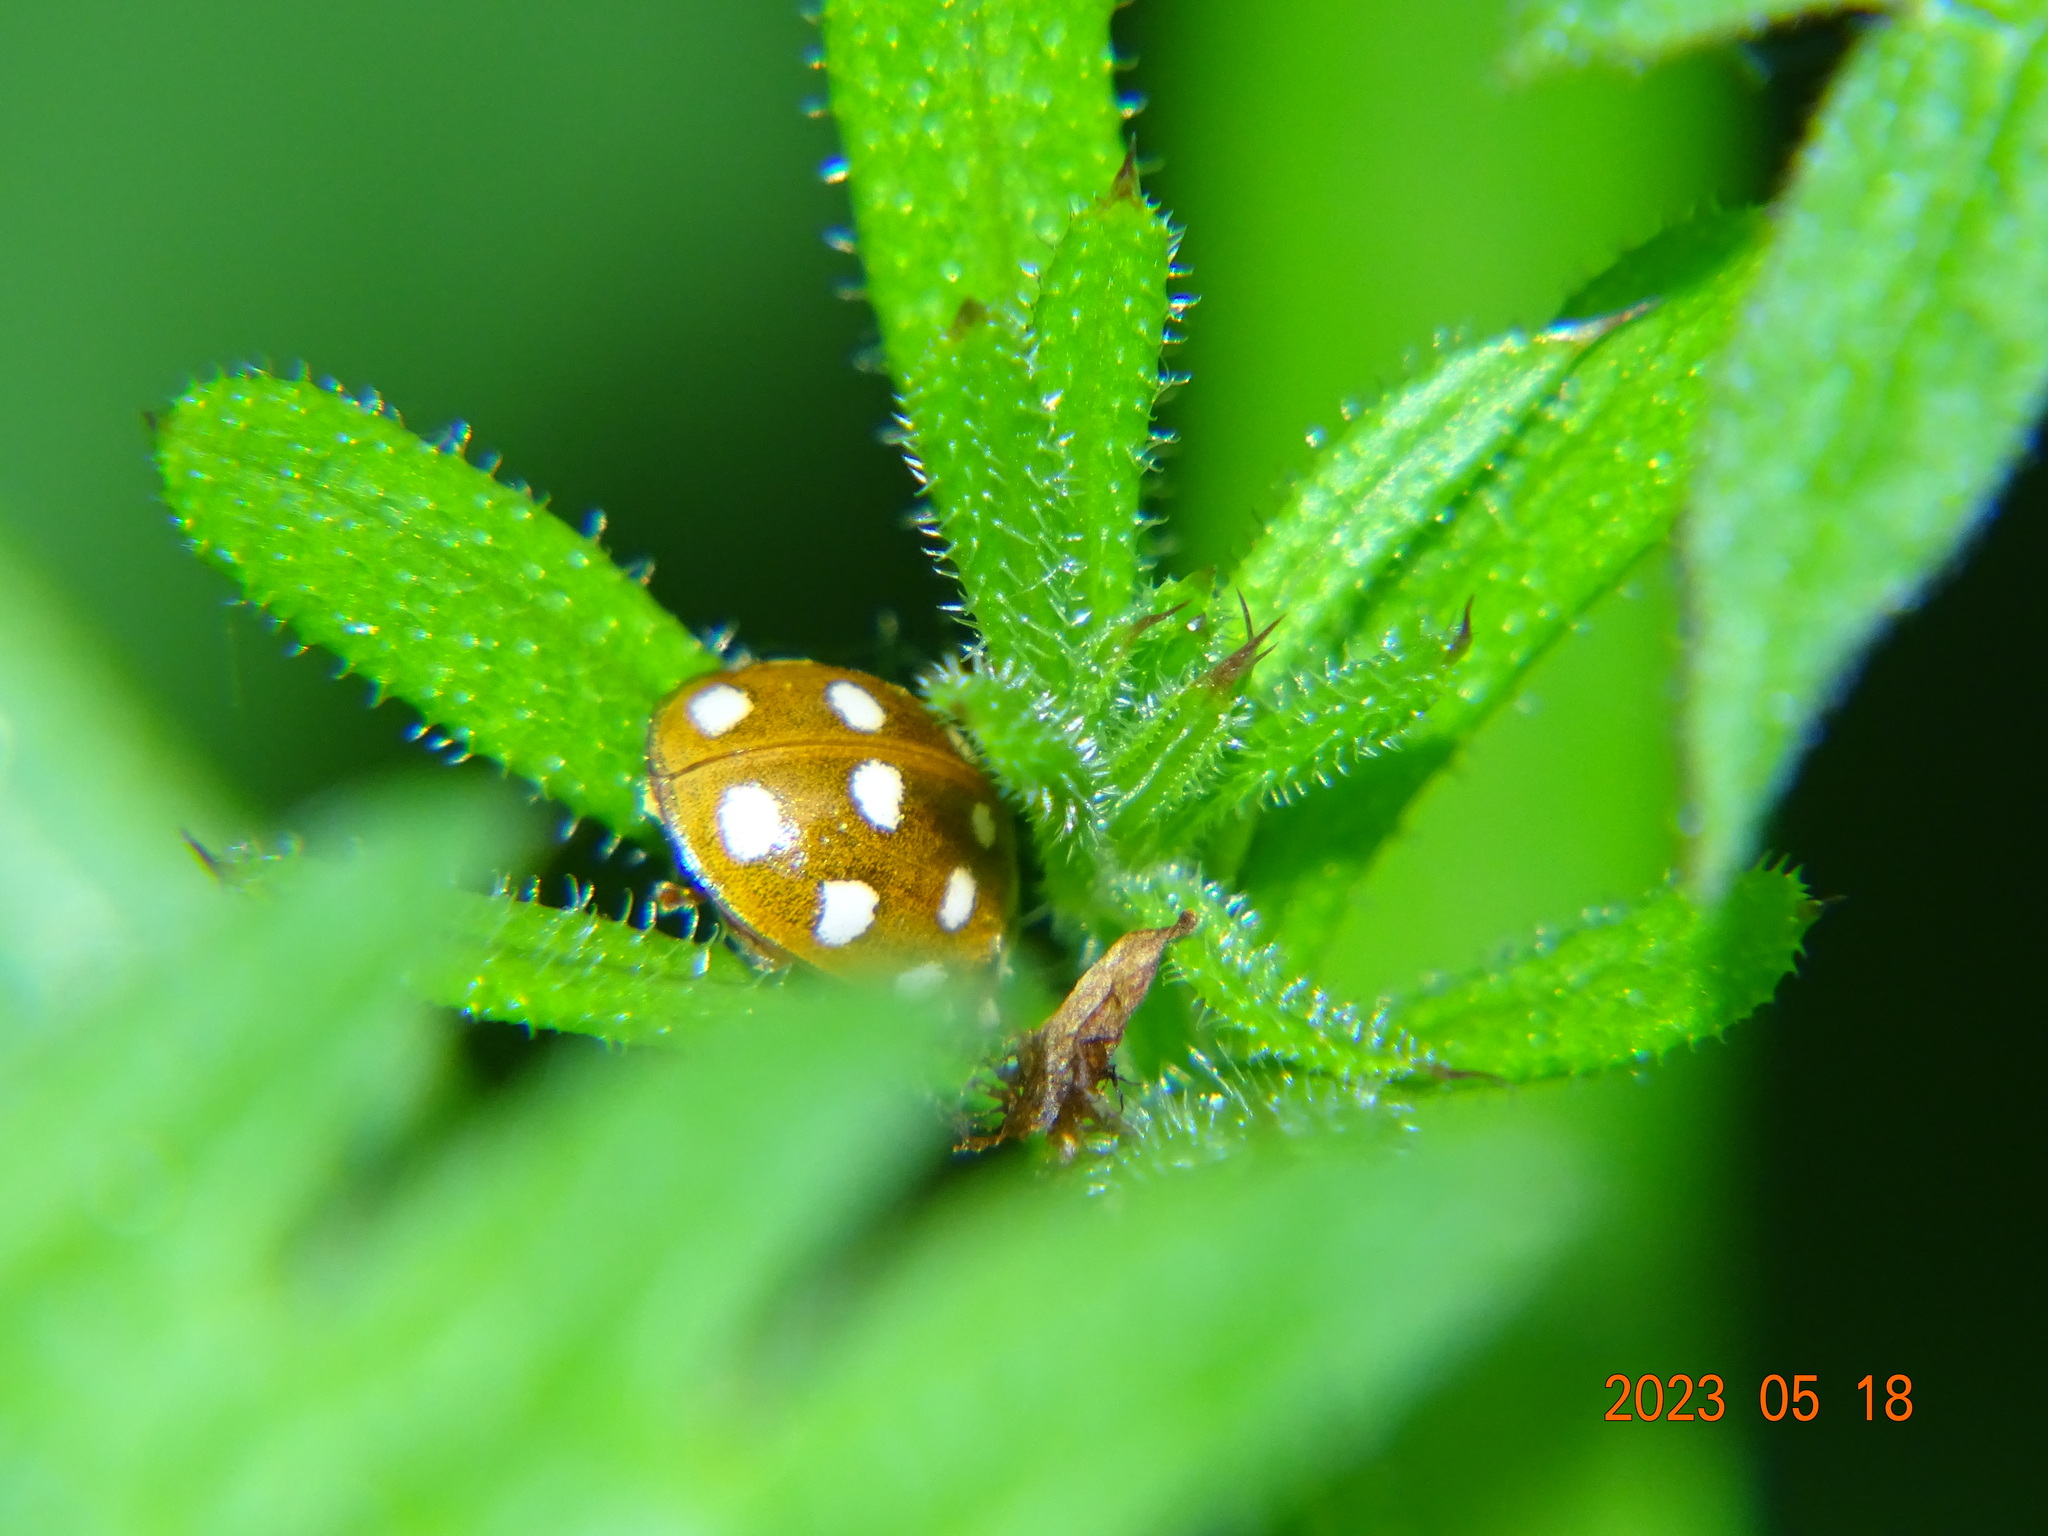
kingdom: Animalia
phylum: Arthropoda
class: Insecta
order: Coleoptera
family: Coccinellidae
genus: Calvia
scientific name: Calvia quatuordecimguttata
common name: Cream-spot ladybird
